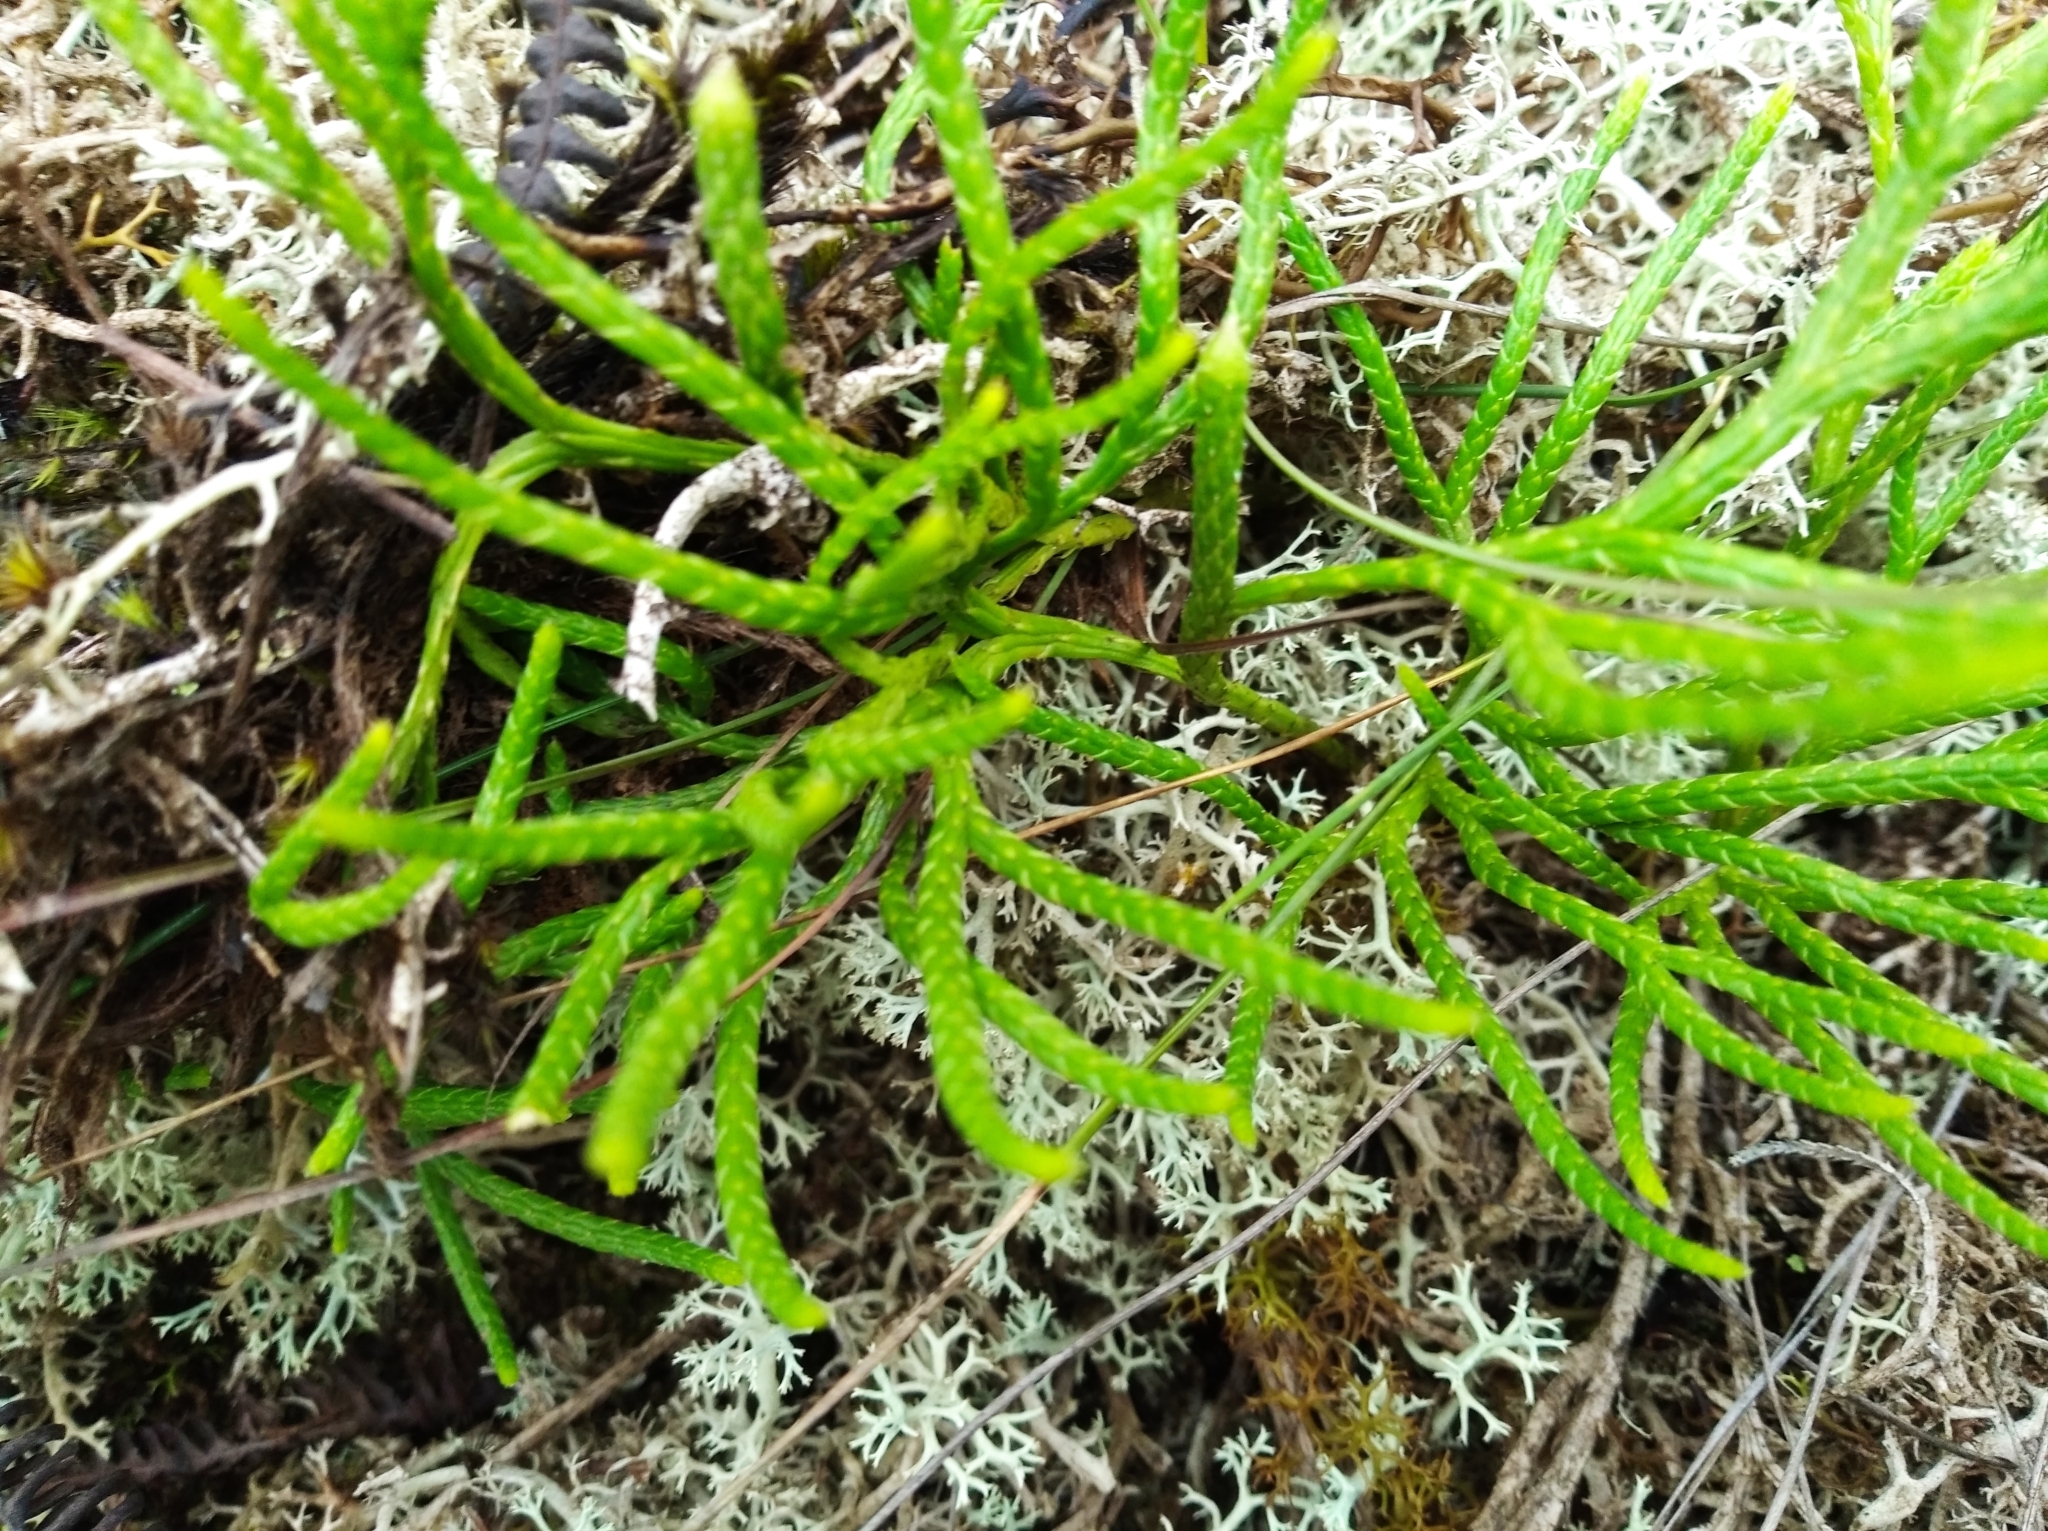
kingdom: Plantae
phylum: Tracheophyta
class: Lycopodiopsida
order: Lycopodiales
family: Lycopodiaceae
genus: Diphasiastrum
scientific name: Diphasiastrum thyoides
